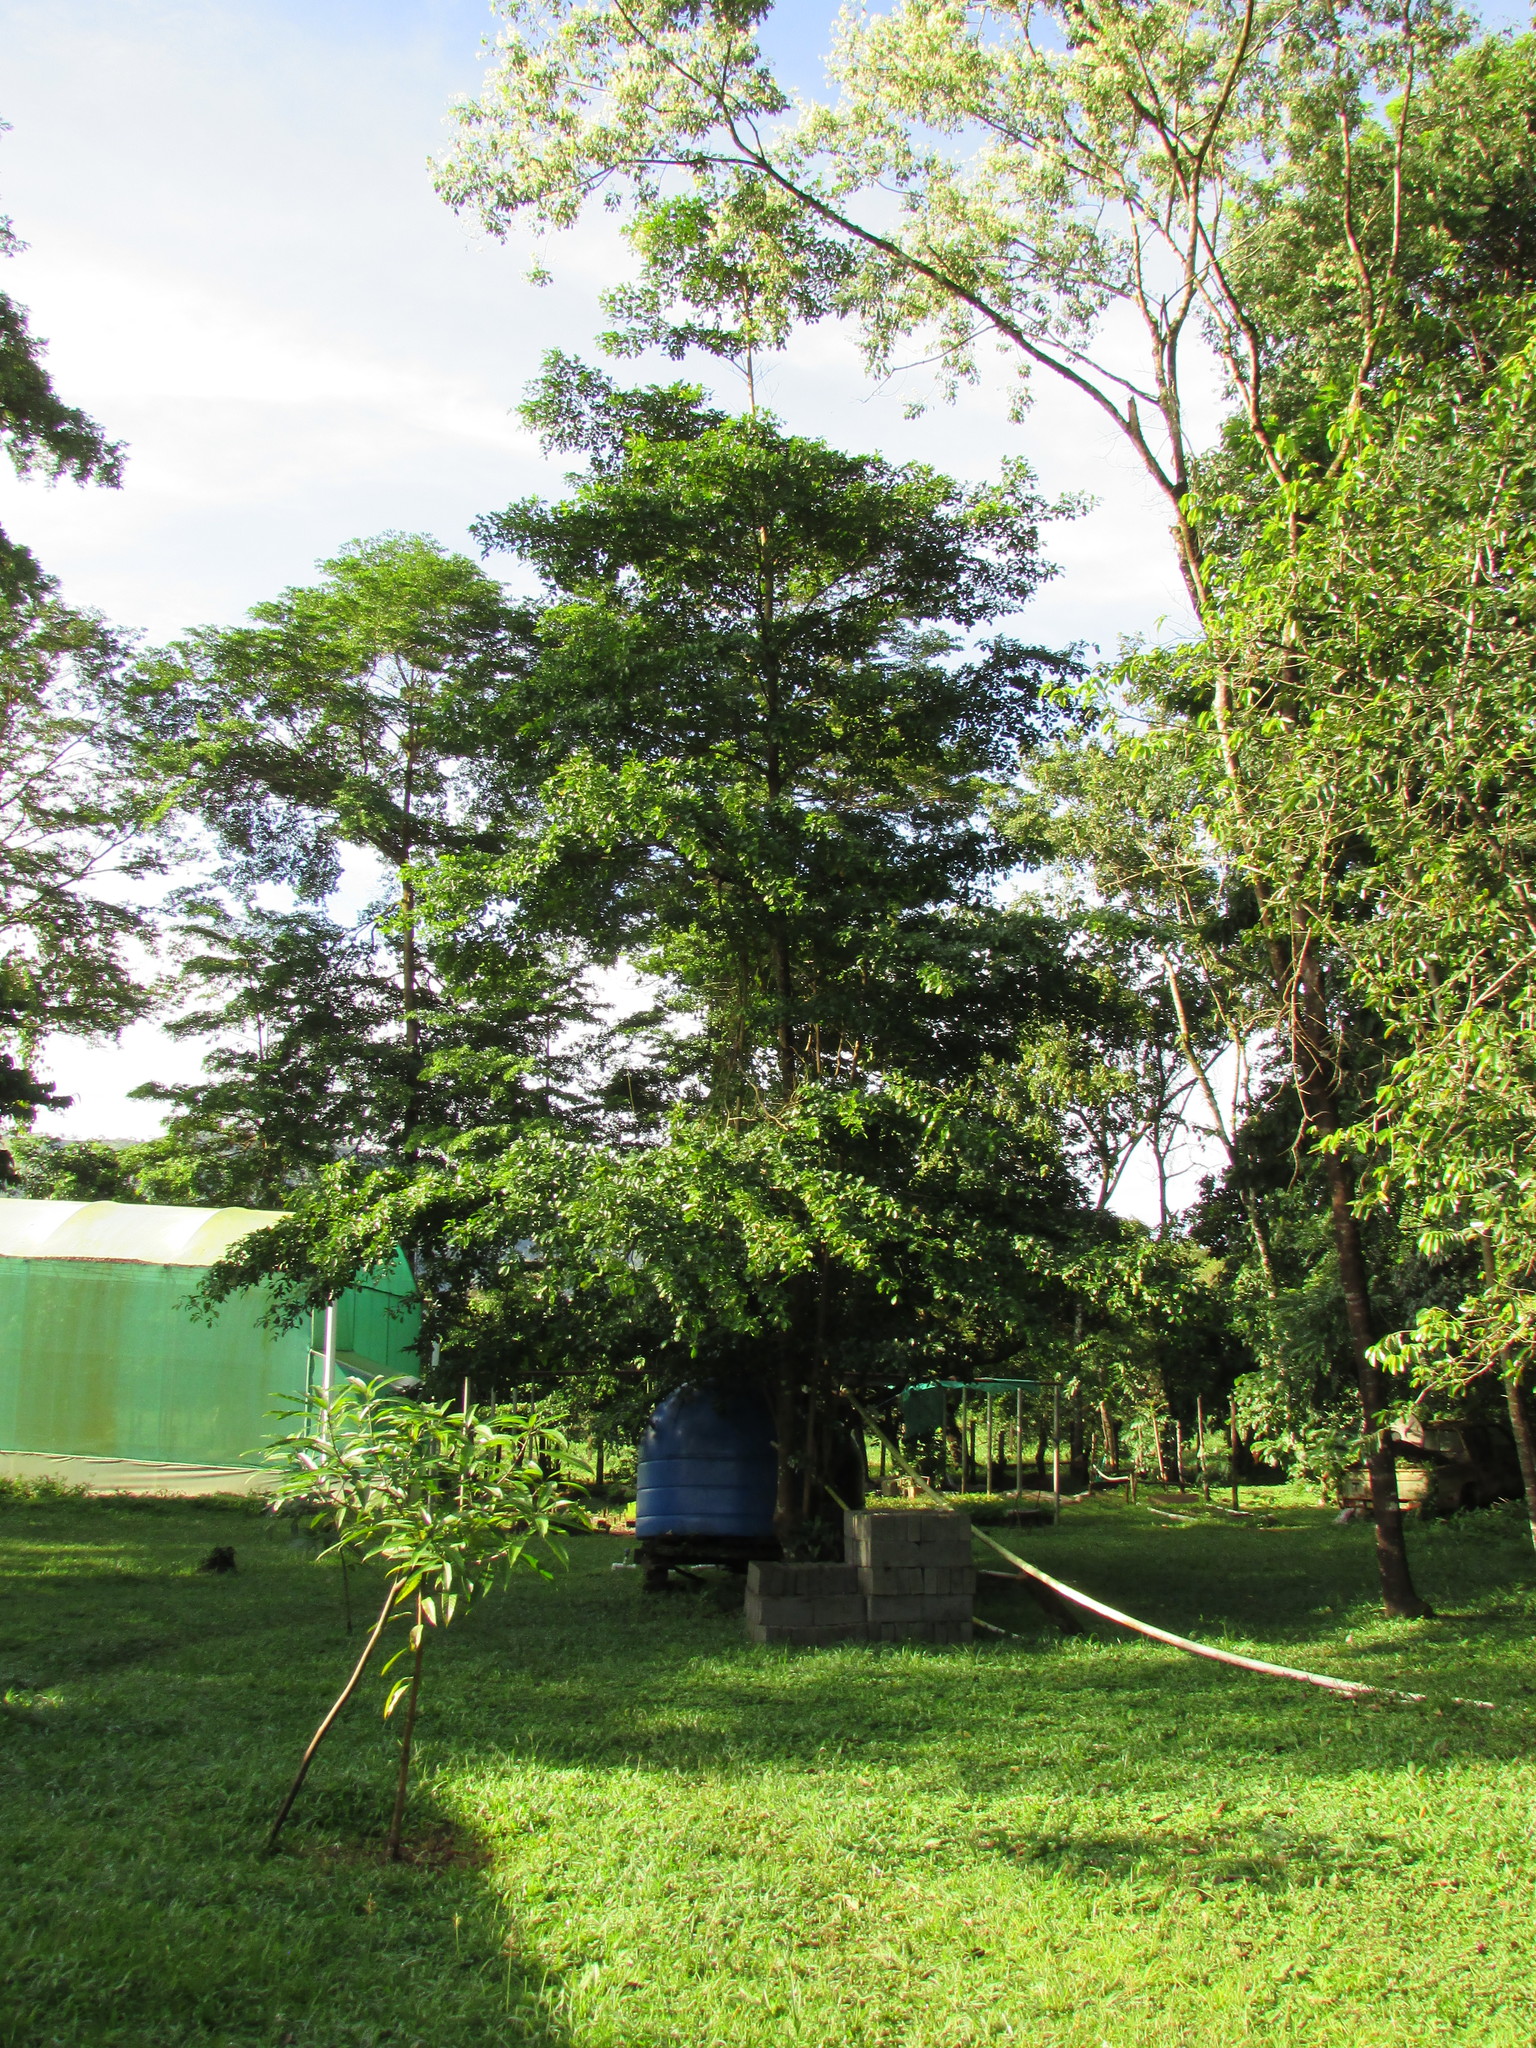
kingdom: Plantae
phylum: Tracheophyta
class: Magnoliopsida
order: Myrtales
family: Combretaceae
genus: Terminalia
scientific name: Terminalia amazonica
